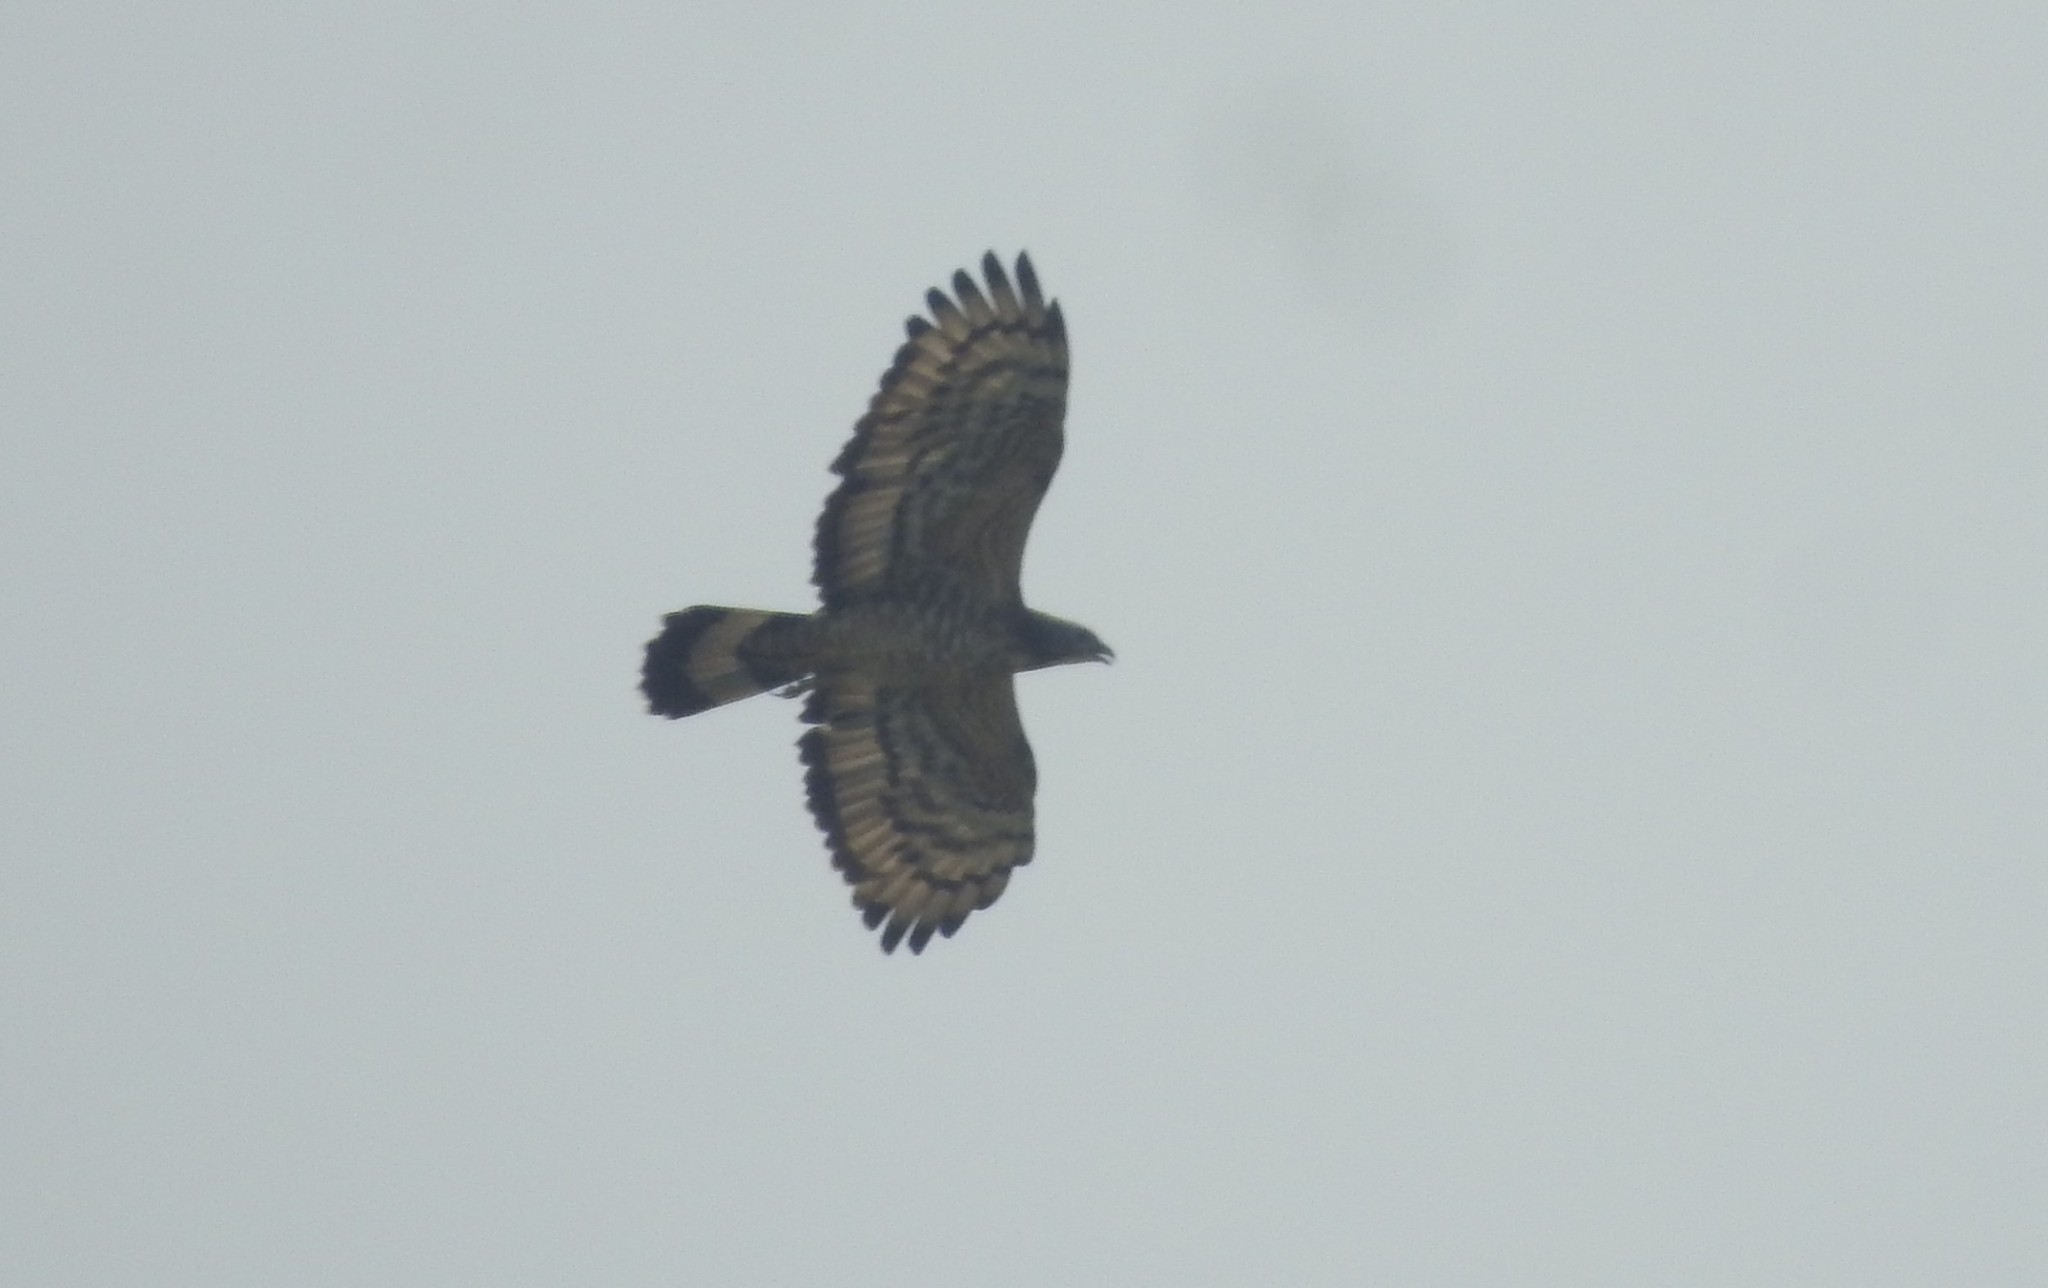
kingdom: Animalia
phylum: Chordata
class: Aves
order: Accipitriformes
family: Accipitridae
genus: Pernis
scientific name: Pernis ptilorhynchus
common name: Crested honey buzzard
